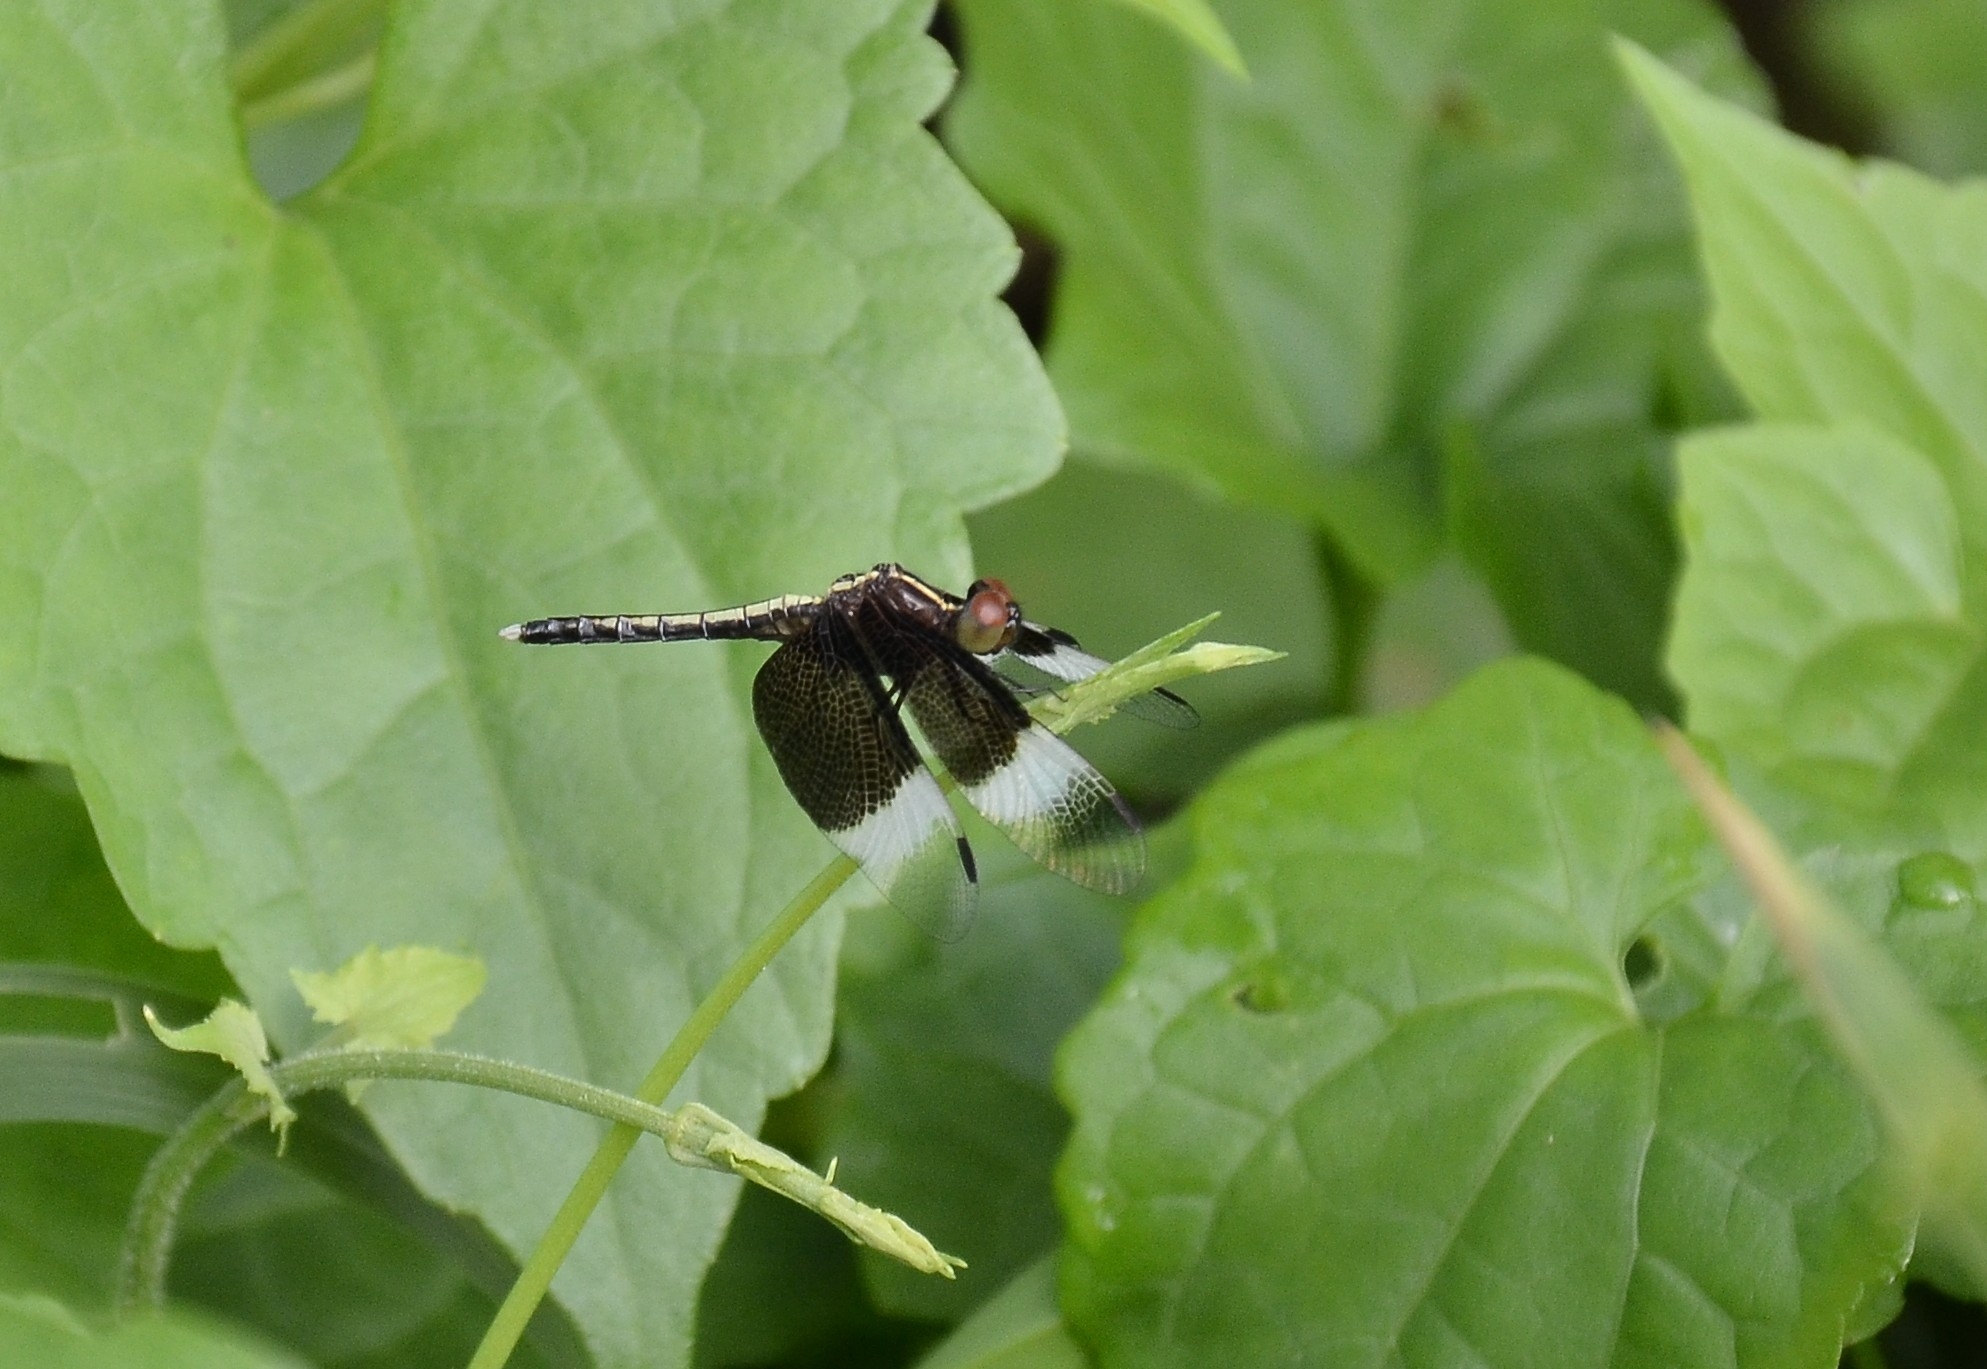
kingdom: Animalia
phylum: Arthropoda
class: Insecta
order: Odonata
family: Libellulidae
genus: Neurothemis
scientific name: Neurothemis tullia
